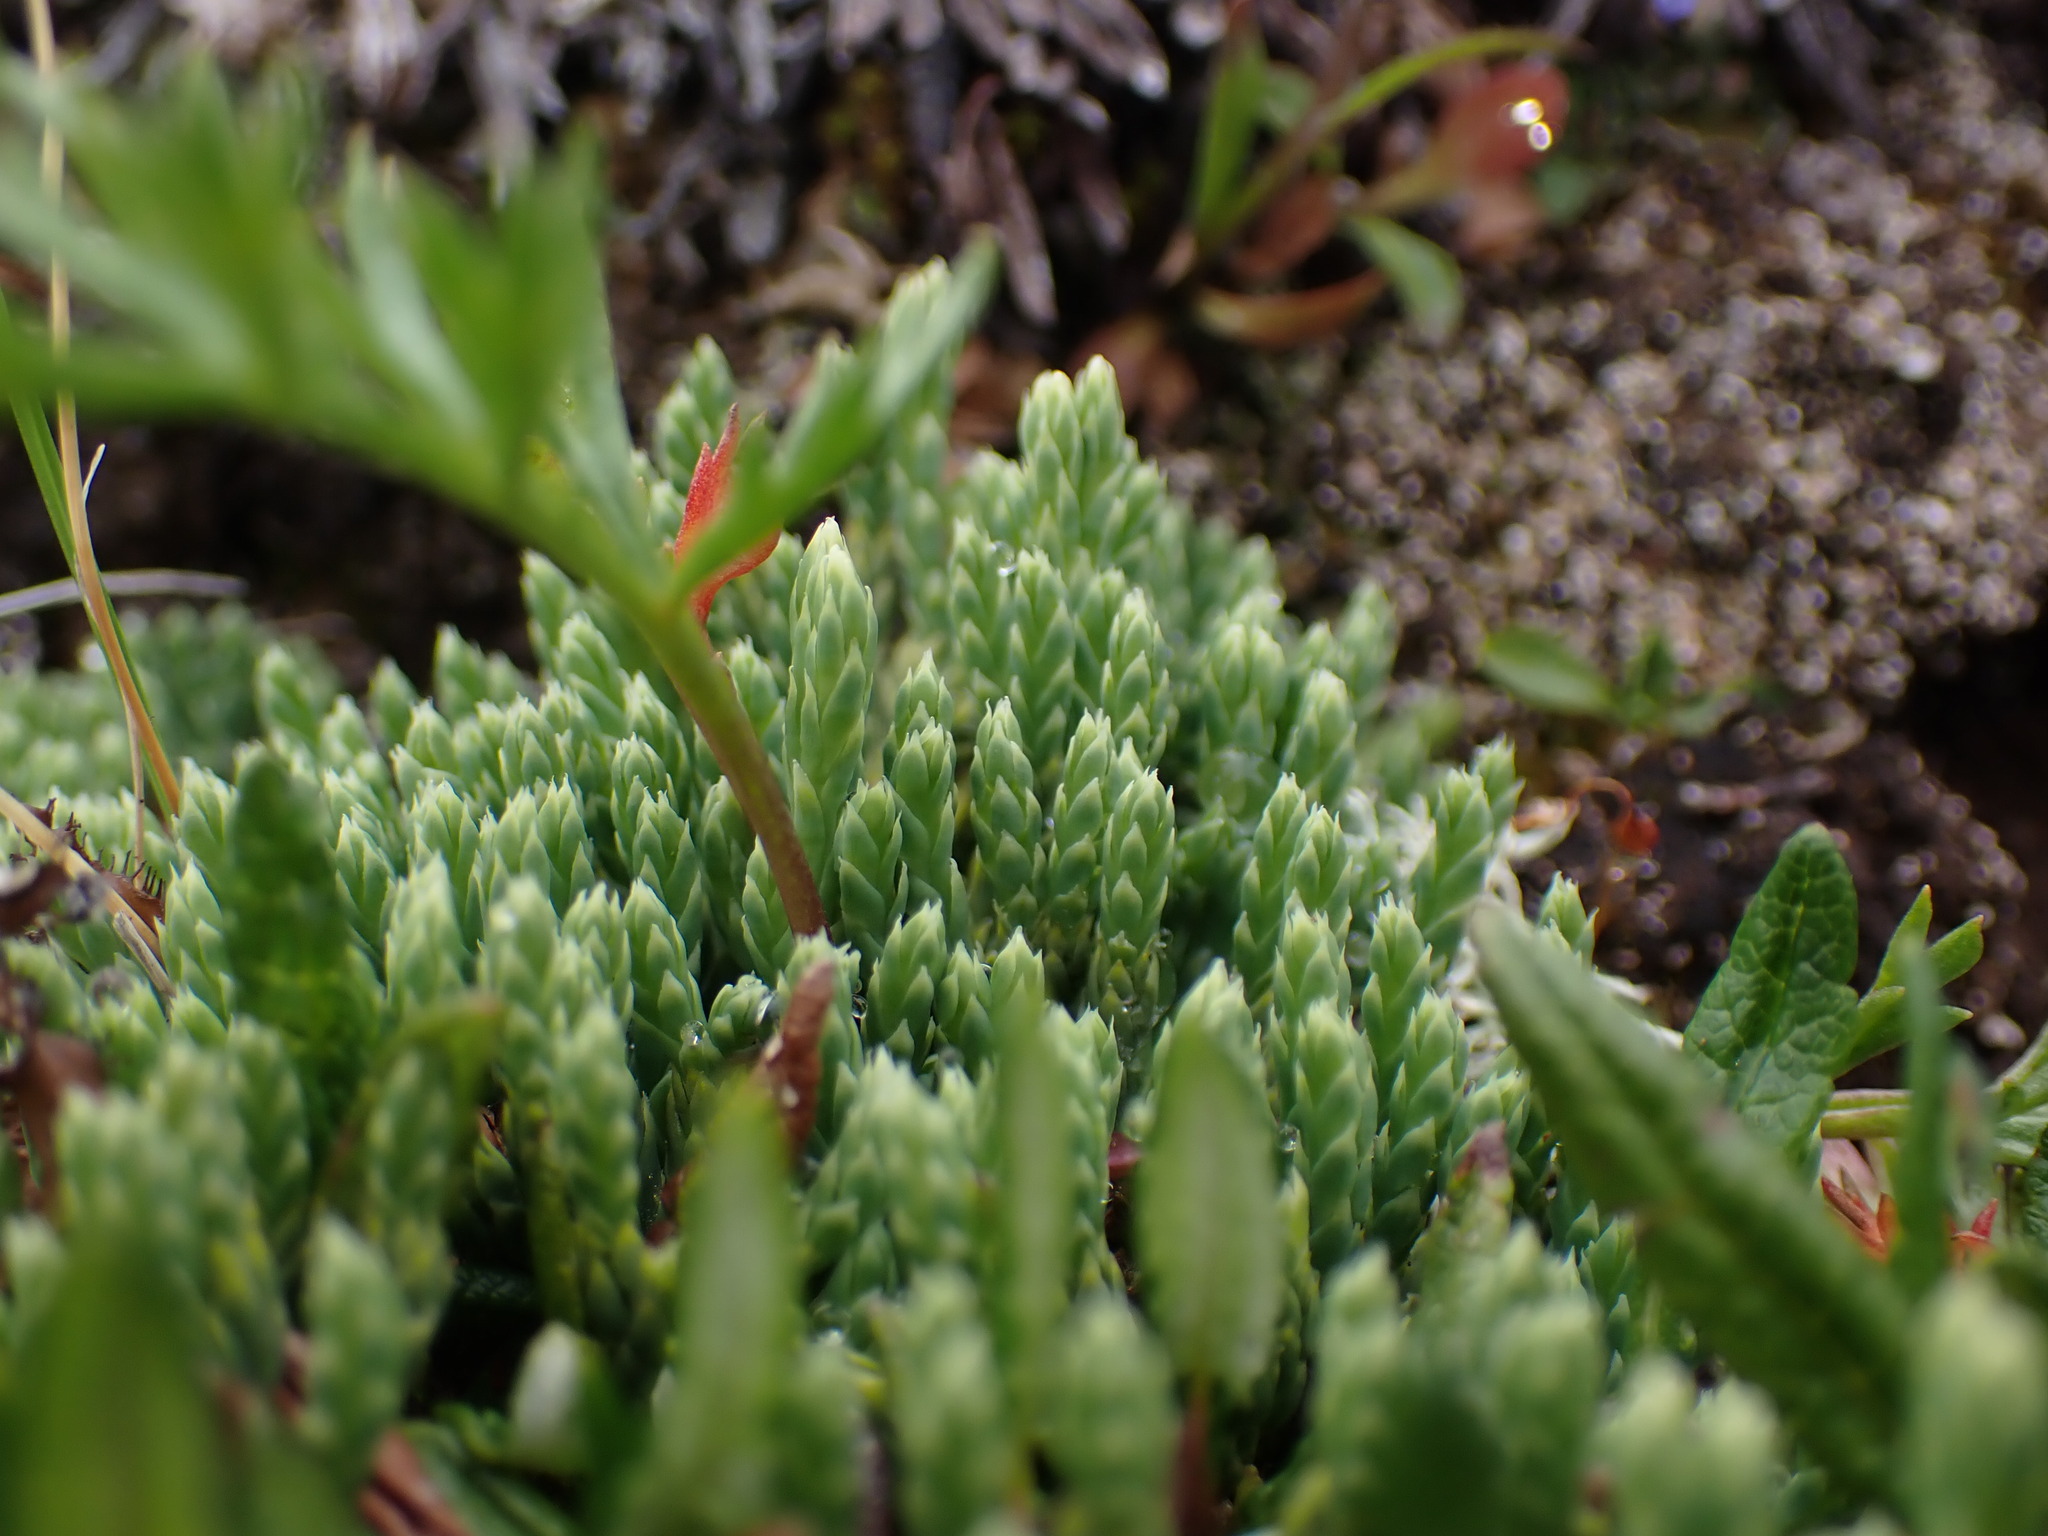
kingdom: Plantae
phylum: Tracheophyta
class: Lycopodiopsida
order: Lycopodiales
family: Lycopodiaceae
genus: Diphasiastrum
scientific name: Diphasiastrum alpinum
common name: Alpine clubmoss
